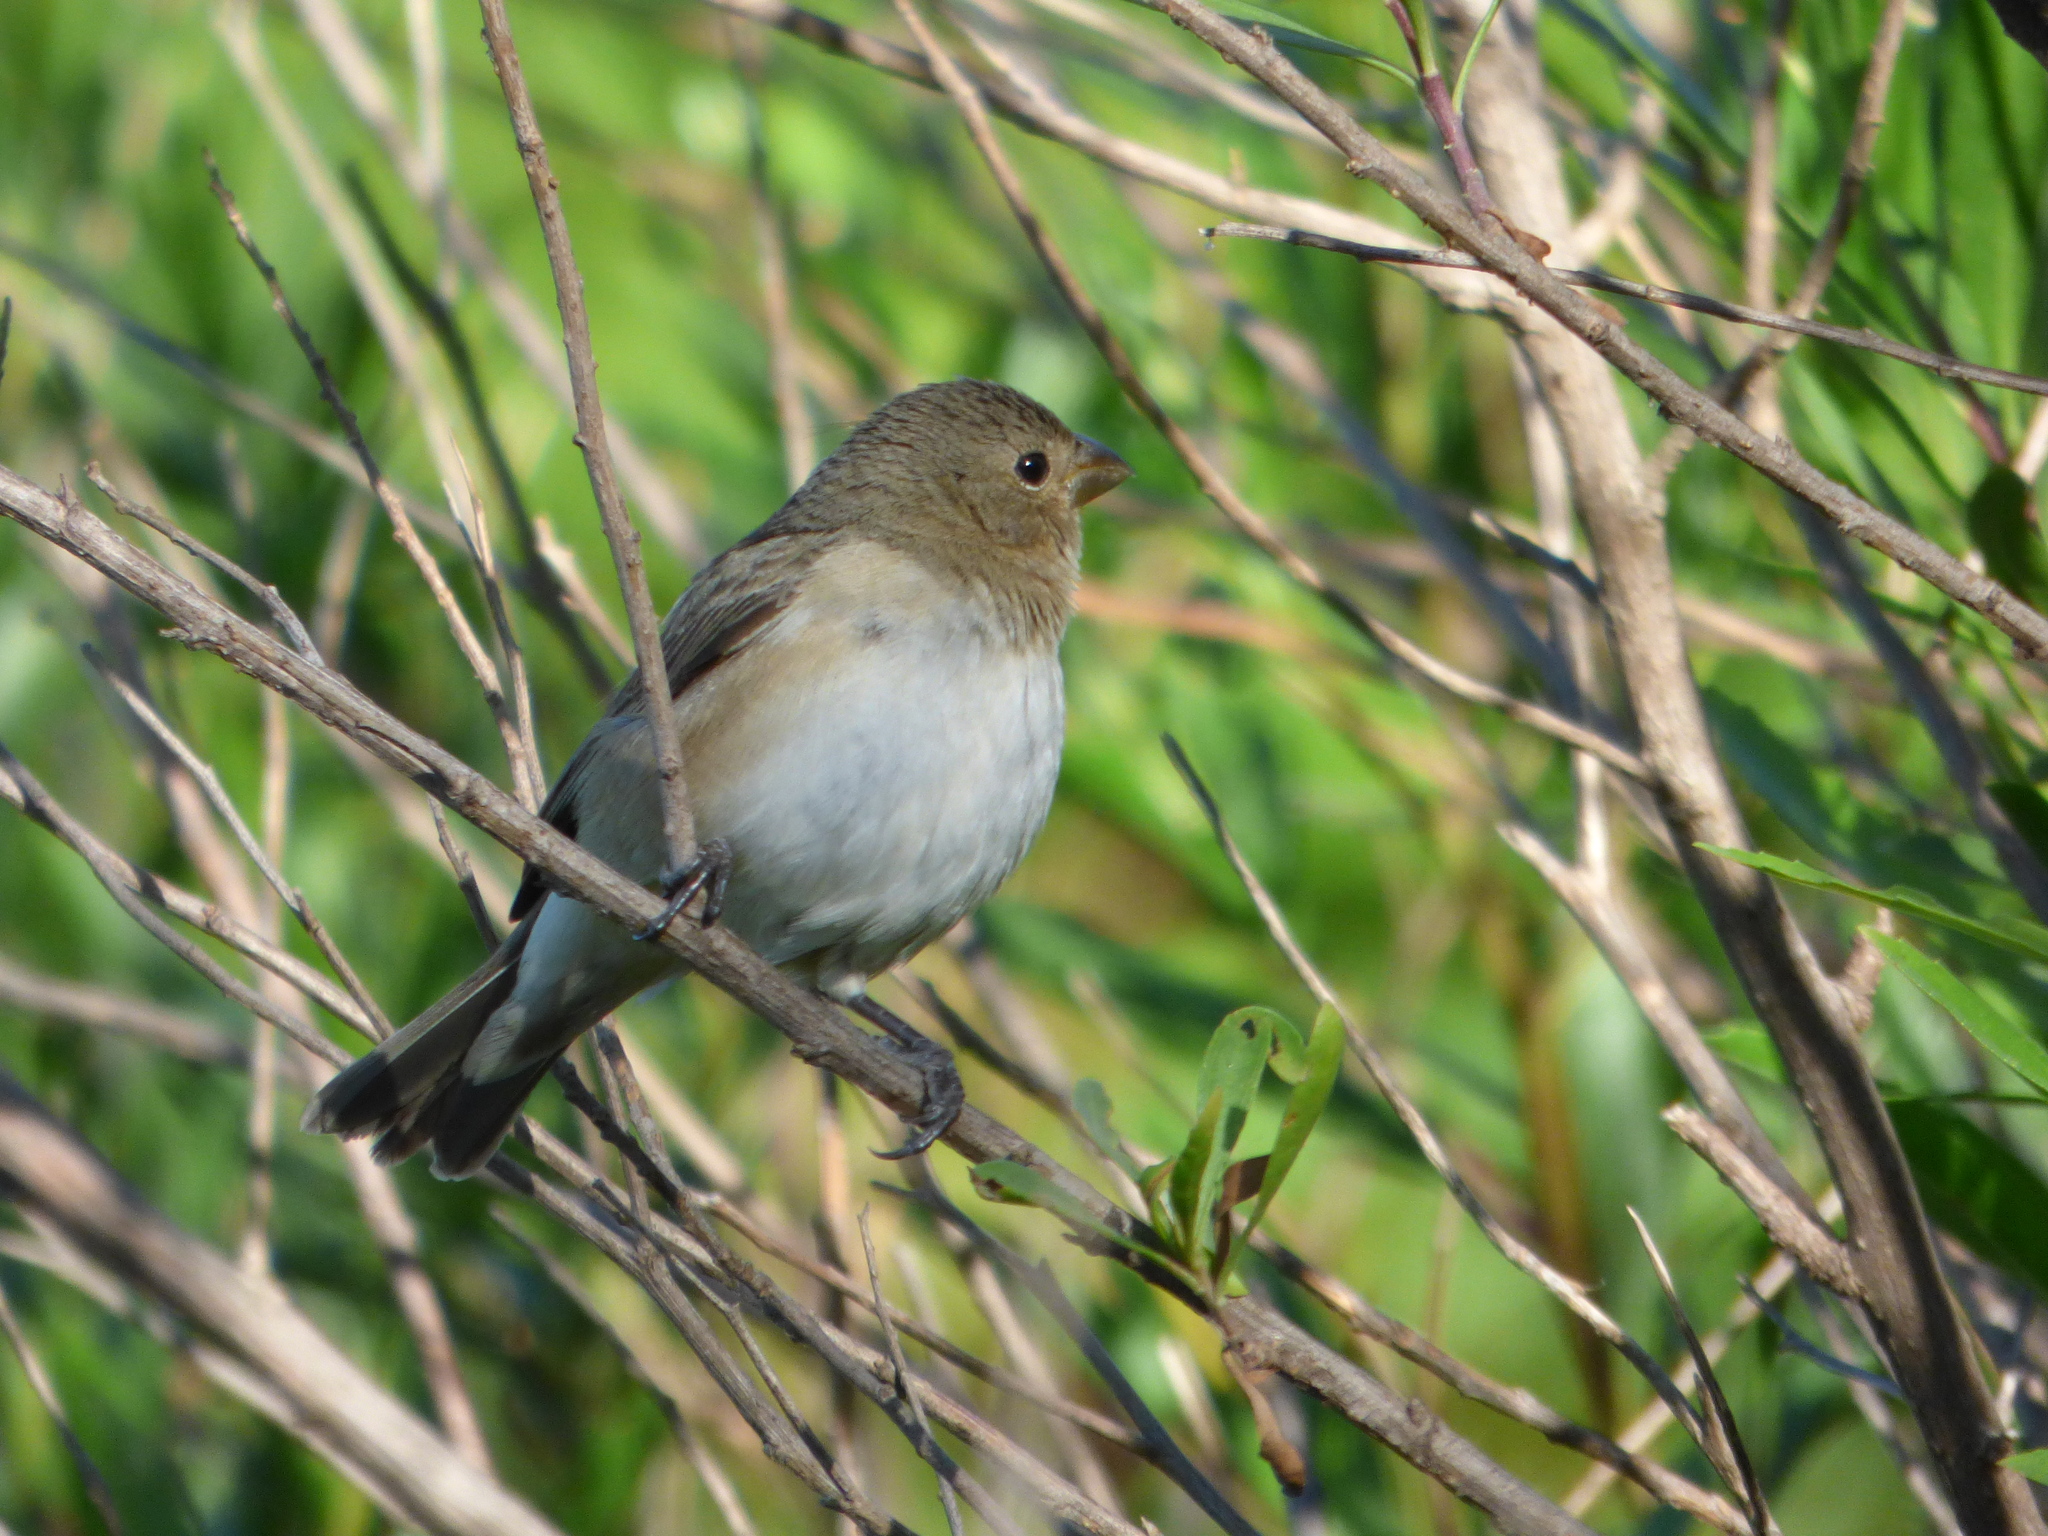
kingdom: Animalia
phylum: Chordata
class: Aves
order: Passeriformes
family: Thraupidae
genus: Sporophila
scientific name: Sporophila caerulescens
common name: Double-collared seedeater
